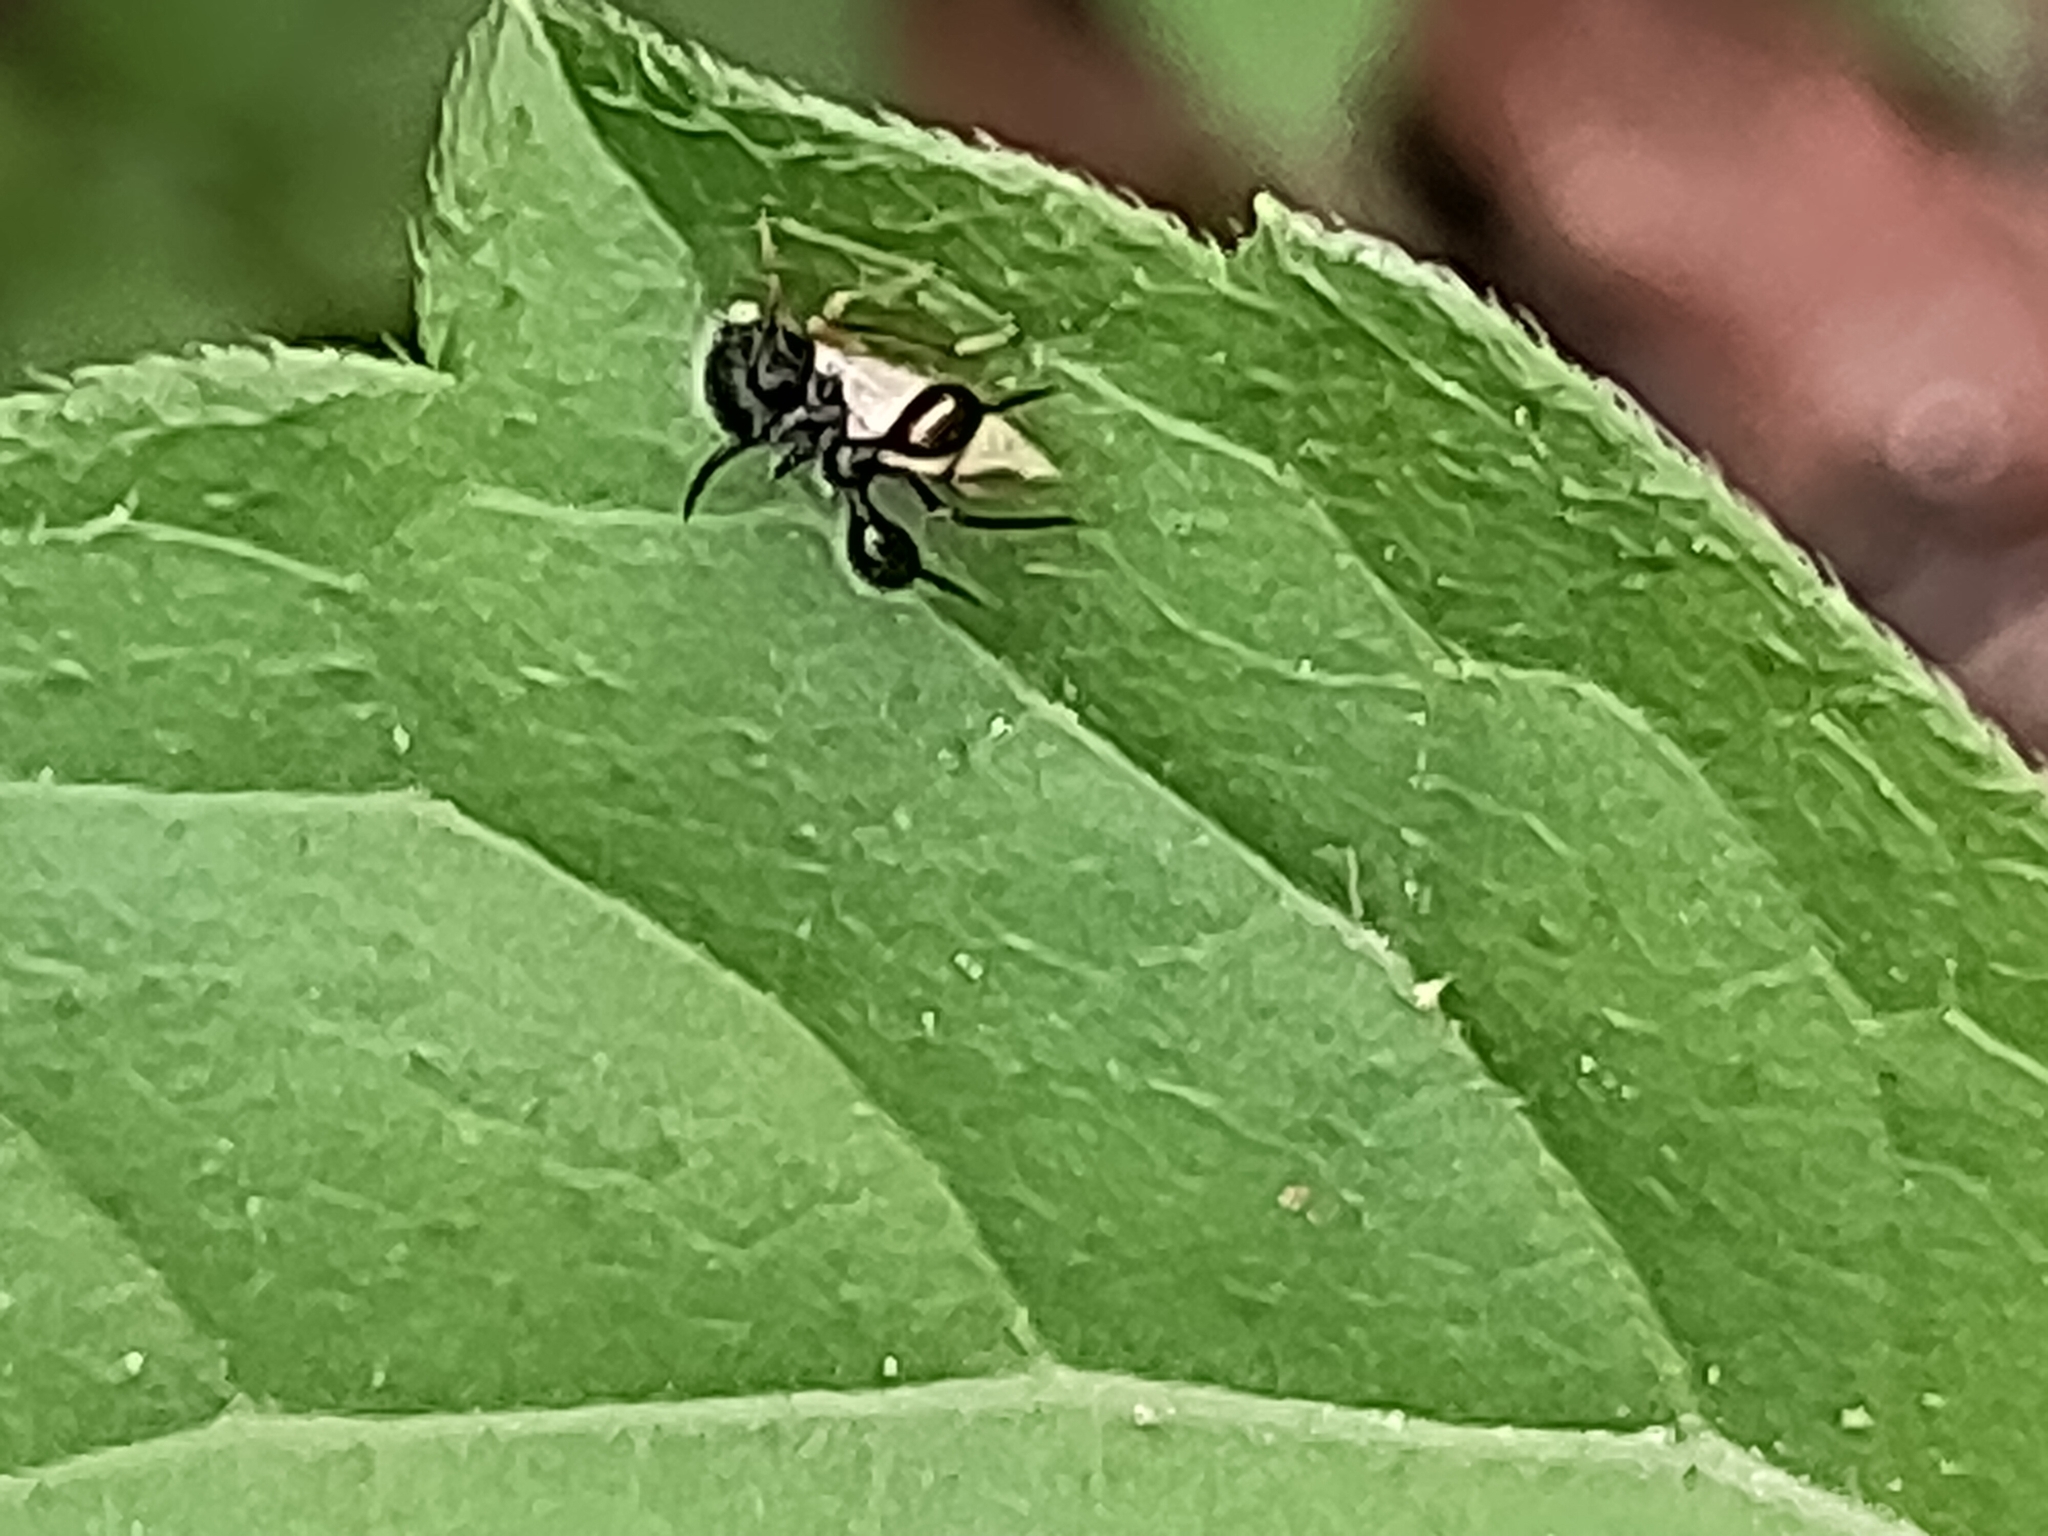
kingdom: Animalia
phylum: Arthropoda
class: Insecta
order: Hemiptera
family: Membracidae
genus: Cyphonia
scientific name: Cyphonia clavata
